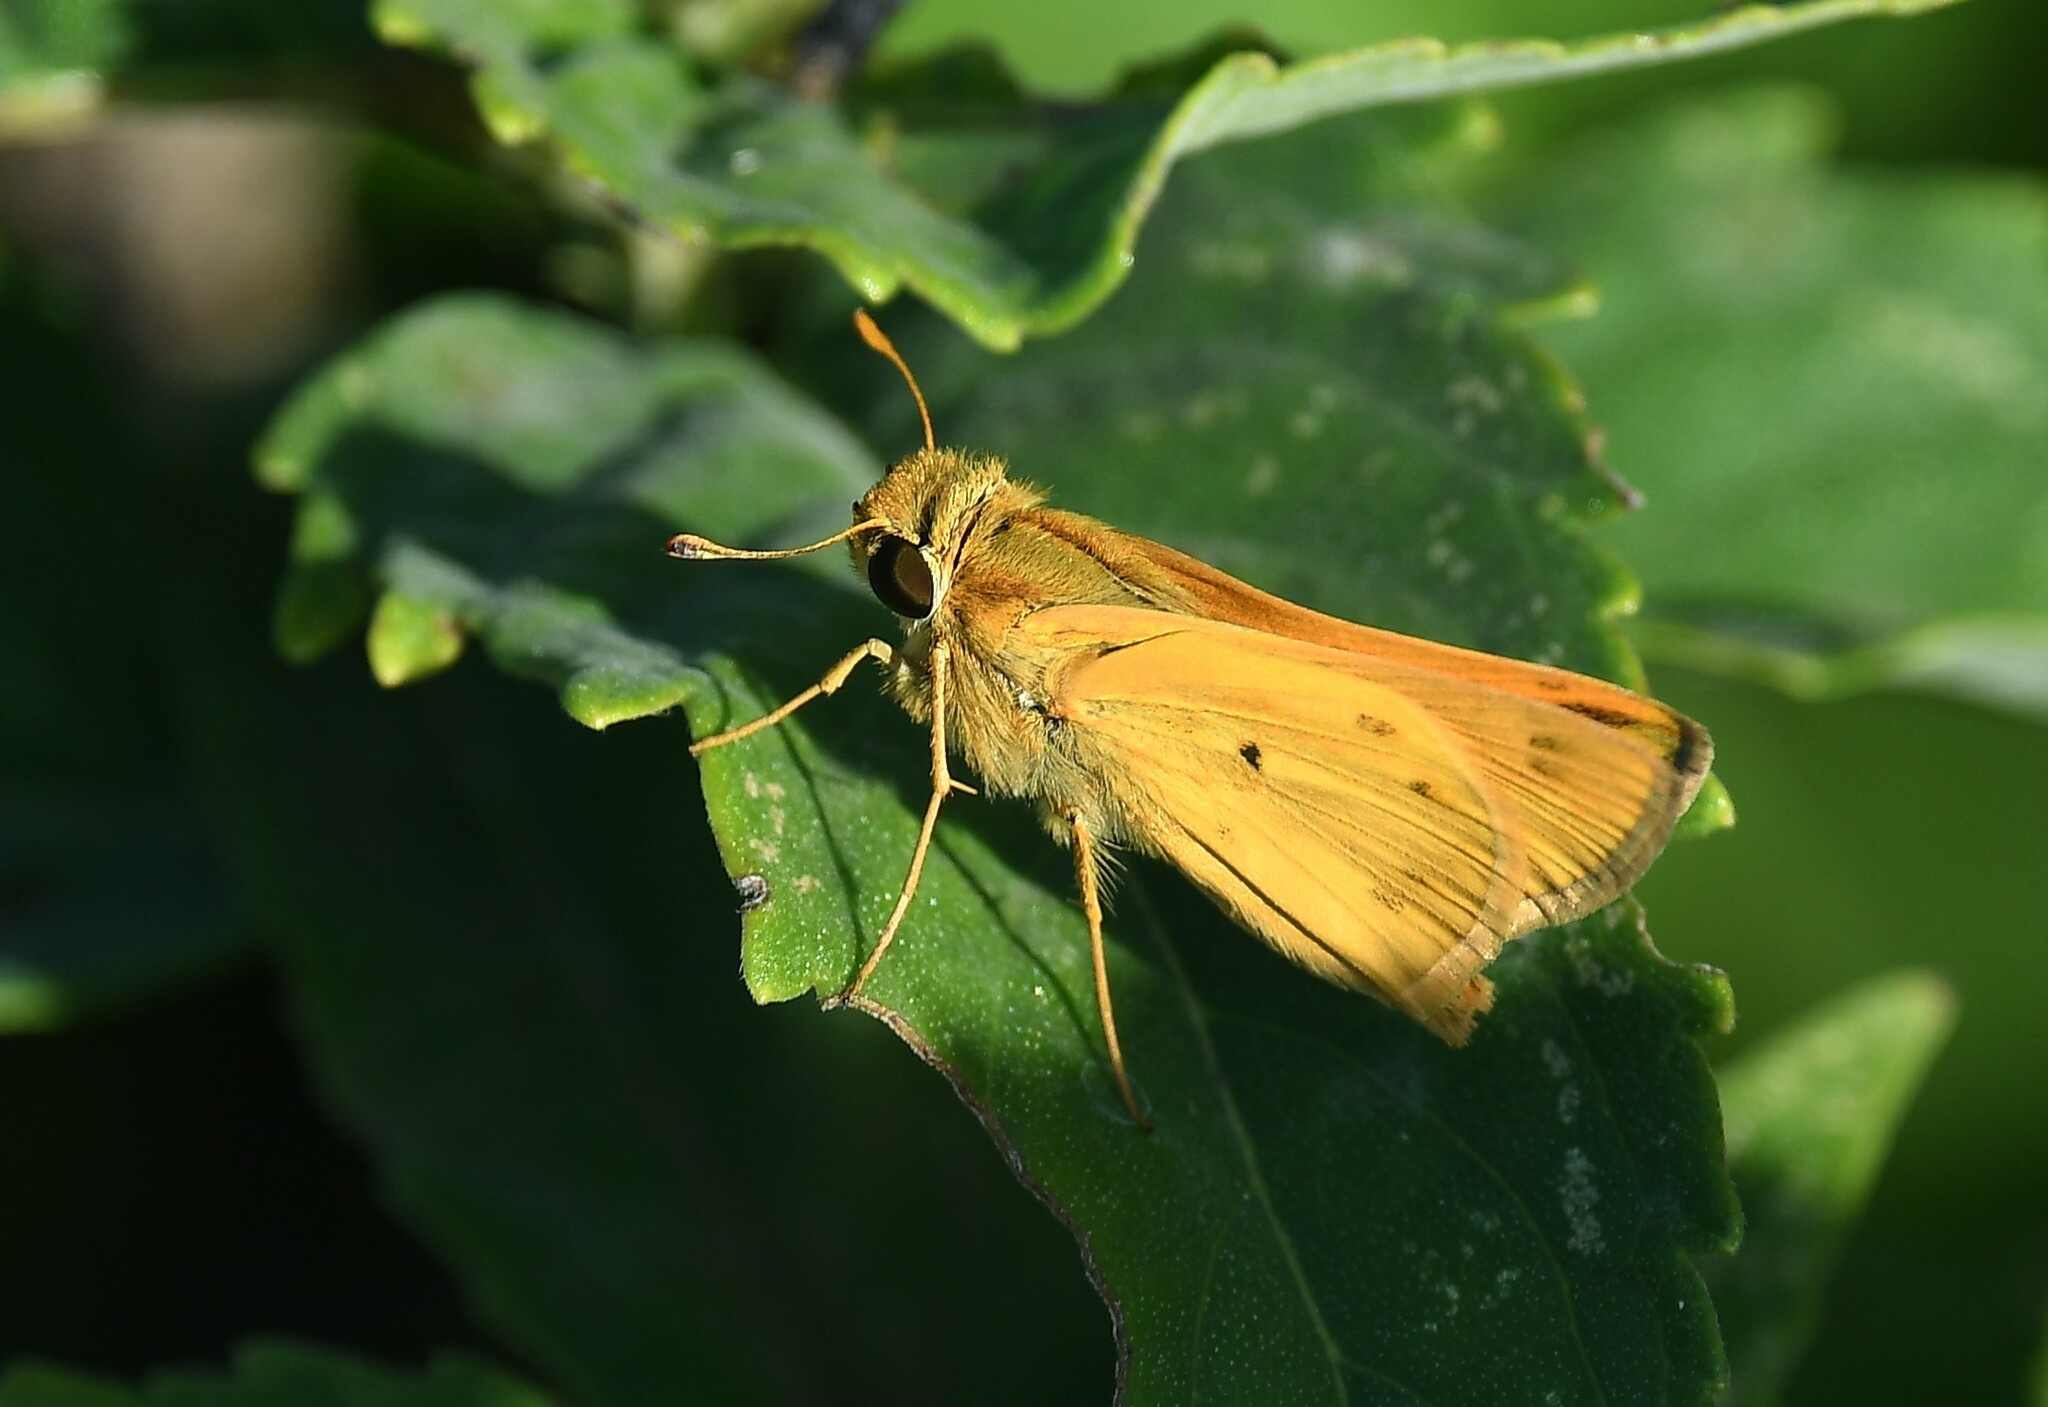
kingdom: Animalia
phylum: Arthropoda
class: Insecta
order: Lepidoptera
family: Hesperiidae
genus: Hylephila
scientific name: Hylephila phyleus
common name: Fiery skipper
